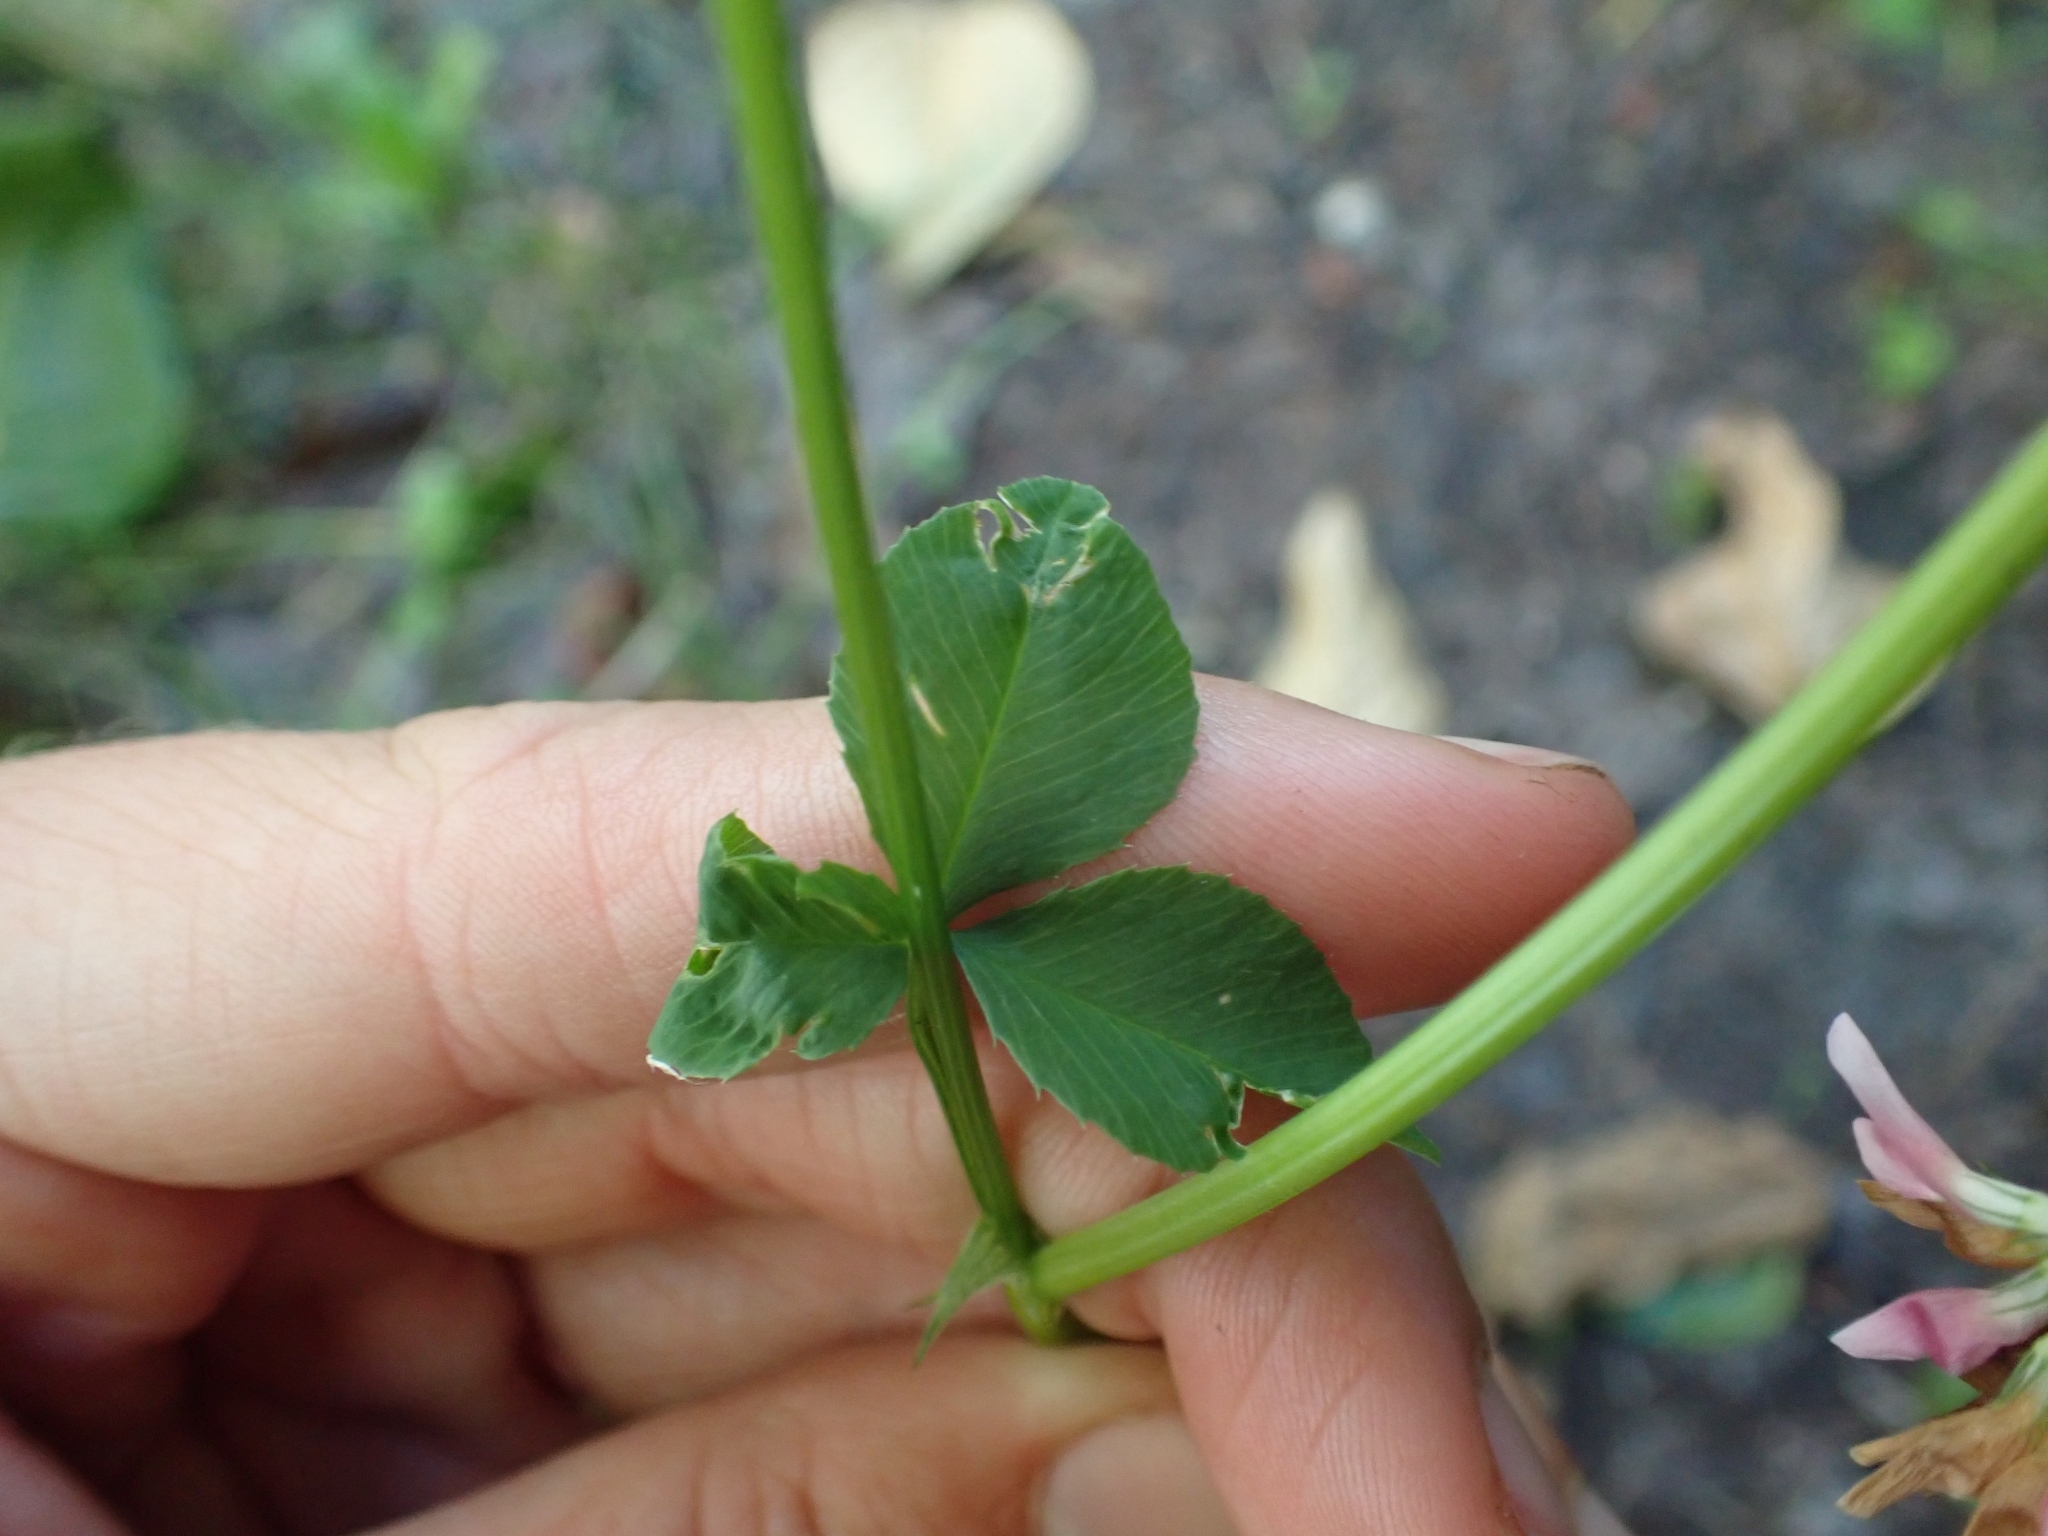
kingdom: Plantae
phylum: Tracheophyta
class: Magnoliopsida
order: Fabales
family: Fabaceae
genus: Trifolium
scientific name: Trifolium hybridum
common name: Alsike clover
